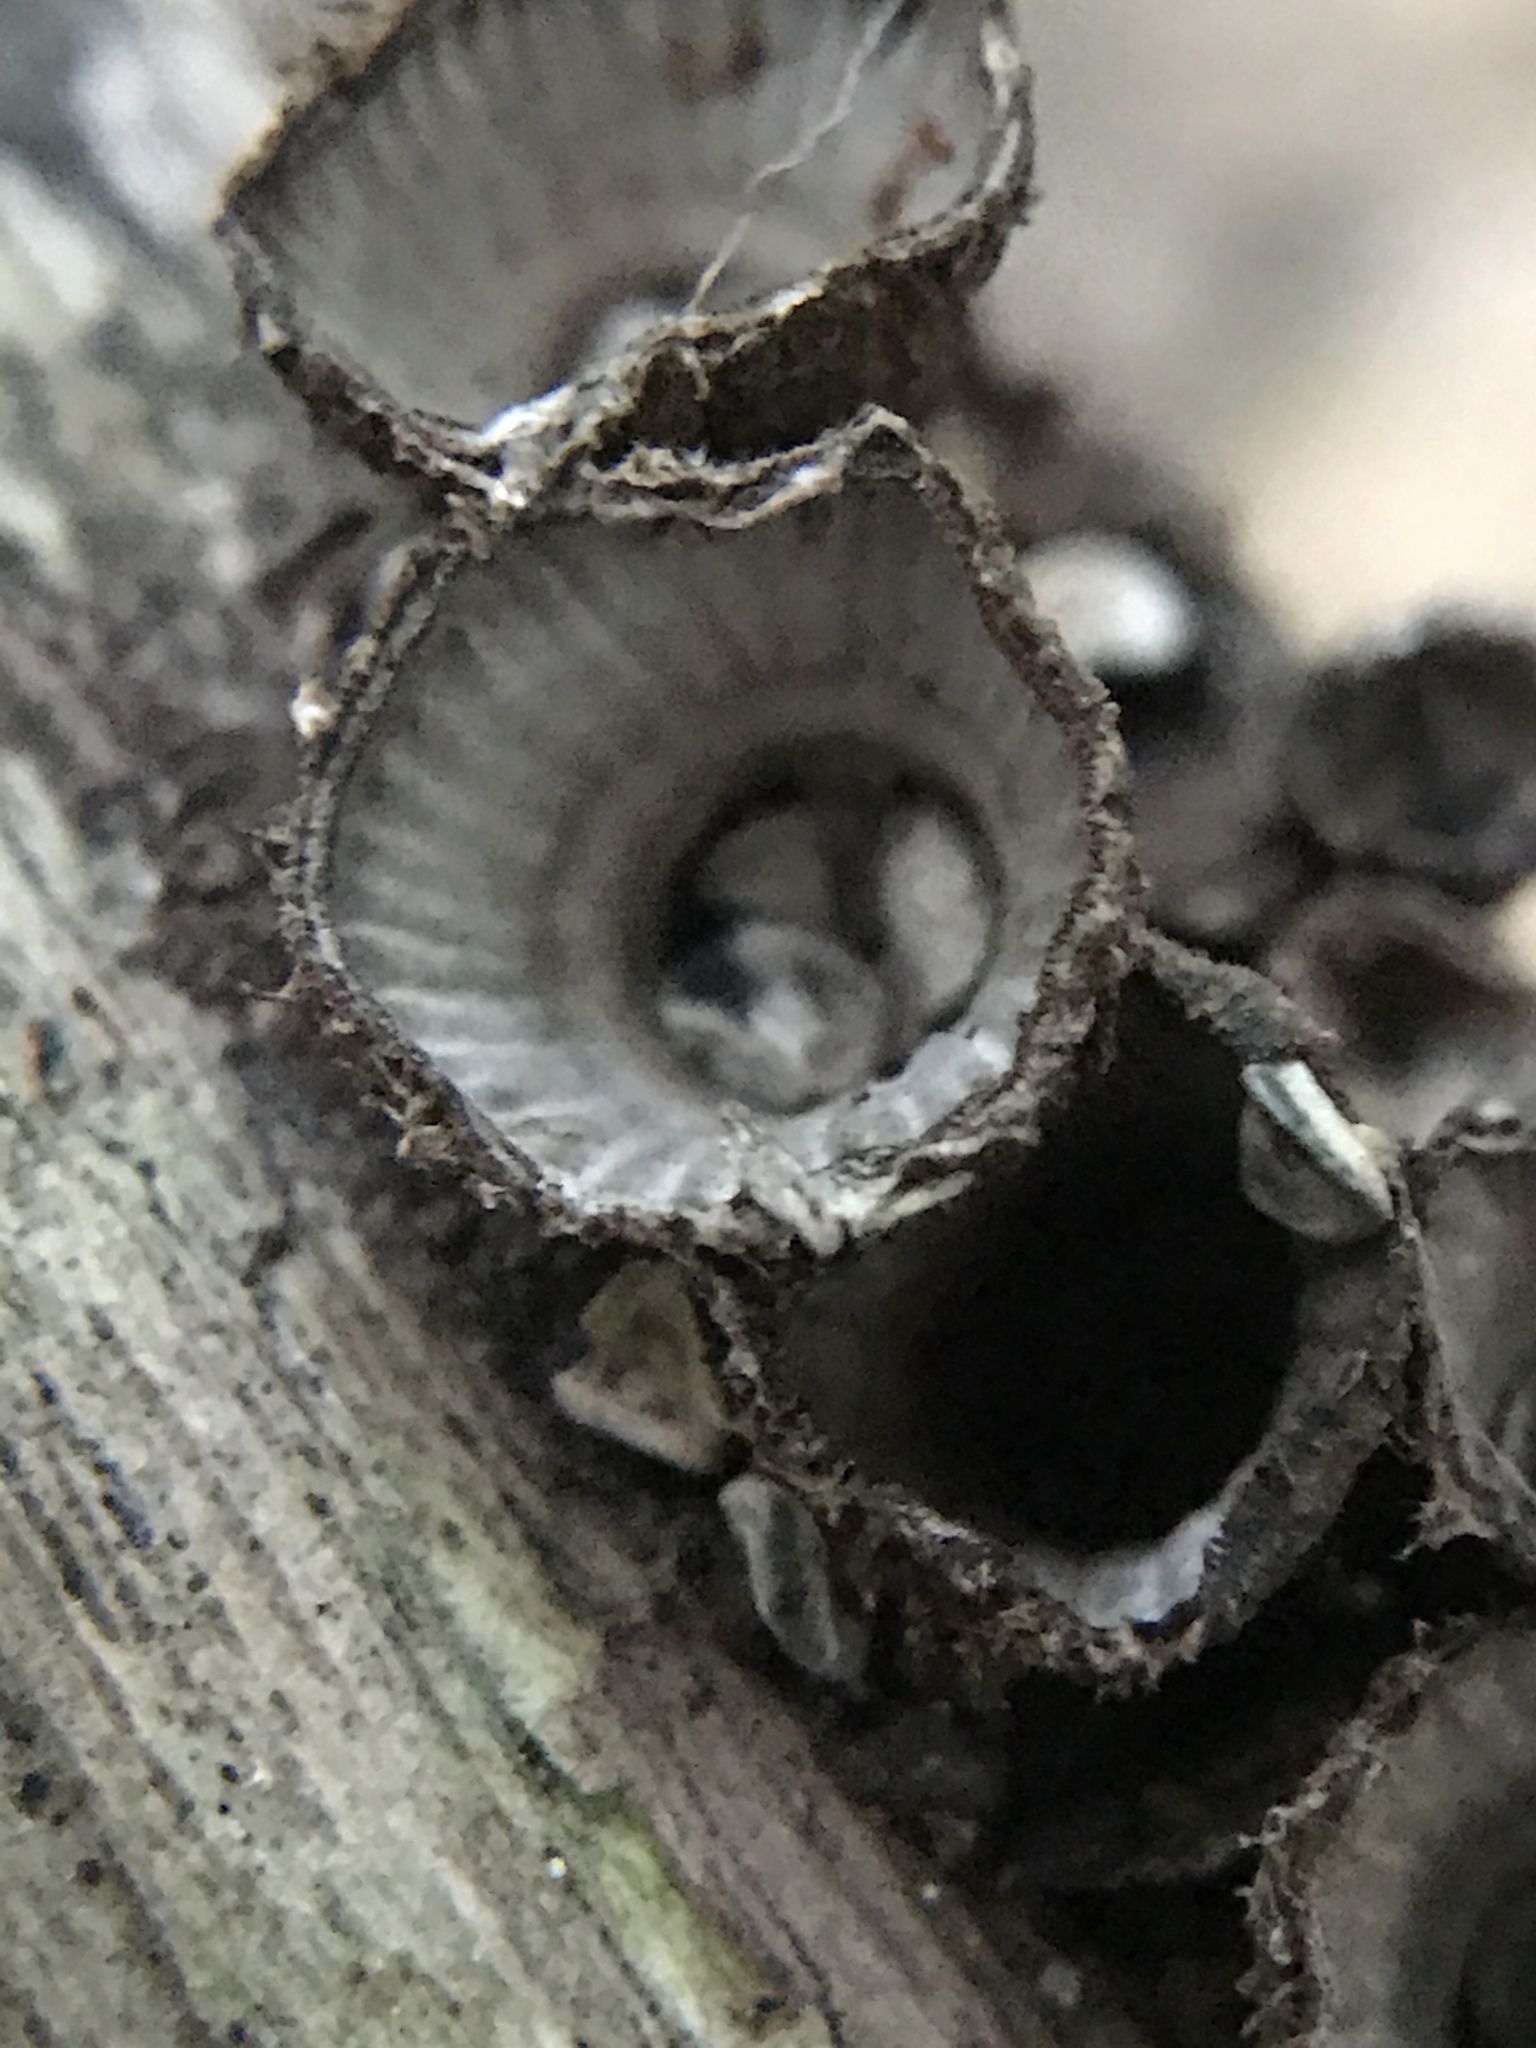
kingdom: Fungi
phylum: Basidiomycota
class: Agaricomycetes
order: Agaricales
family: Agaricaceae
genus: Cyathus
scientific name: Cyathus striatus
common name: Fluted bird's nest
